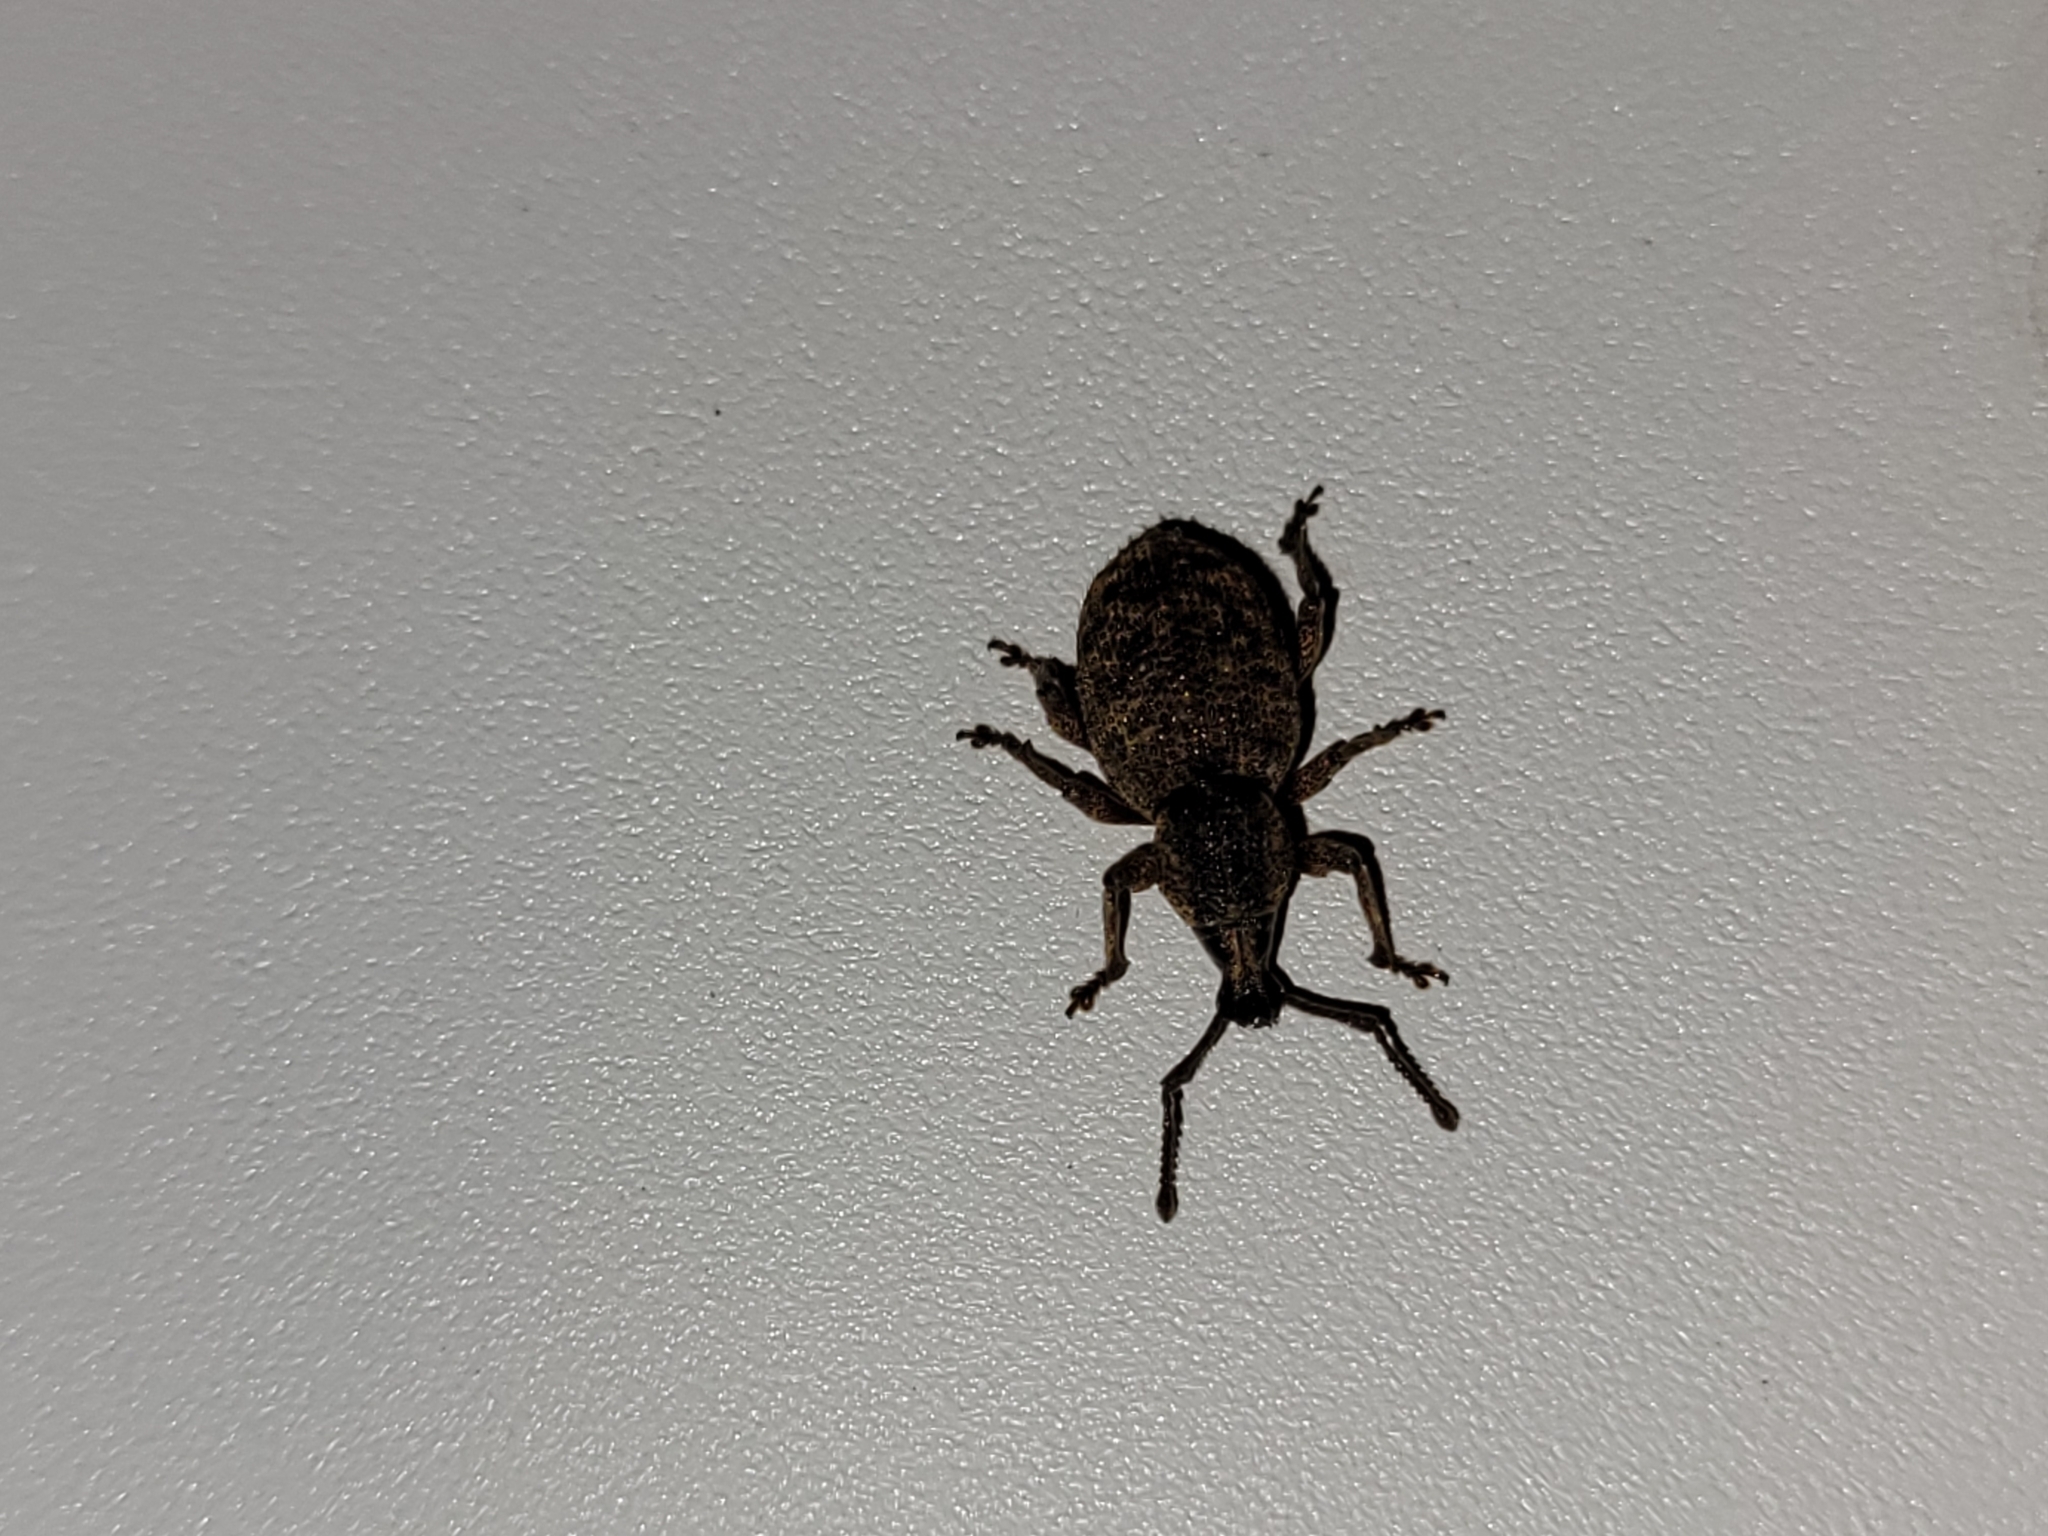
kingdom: Animalia
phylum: Arthropoda
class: Insecta
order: Coleoptera
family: Curculionidae
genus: Otiorhynchus
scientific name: Otiorhynchus singularis
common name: Clay-coloured weevil
